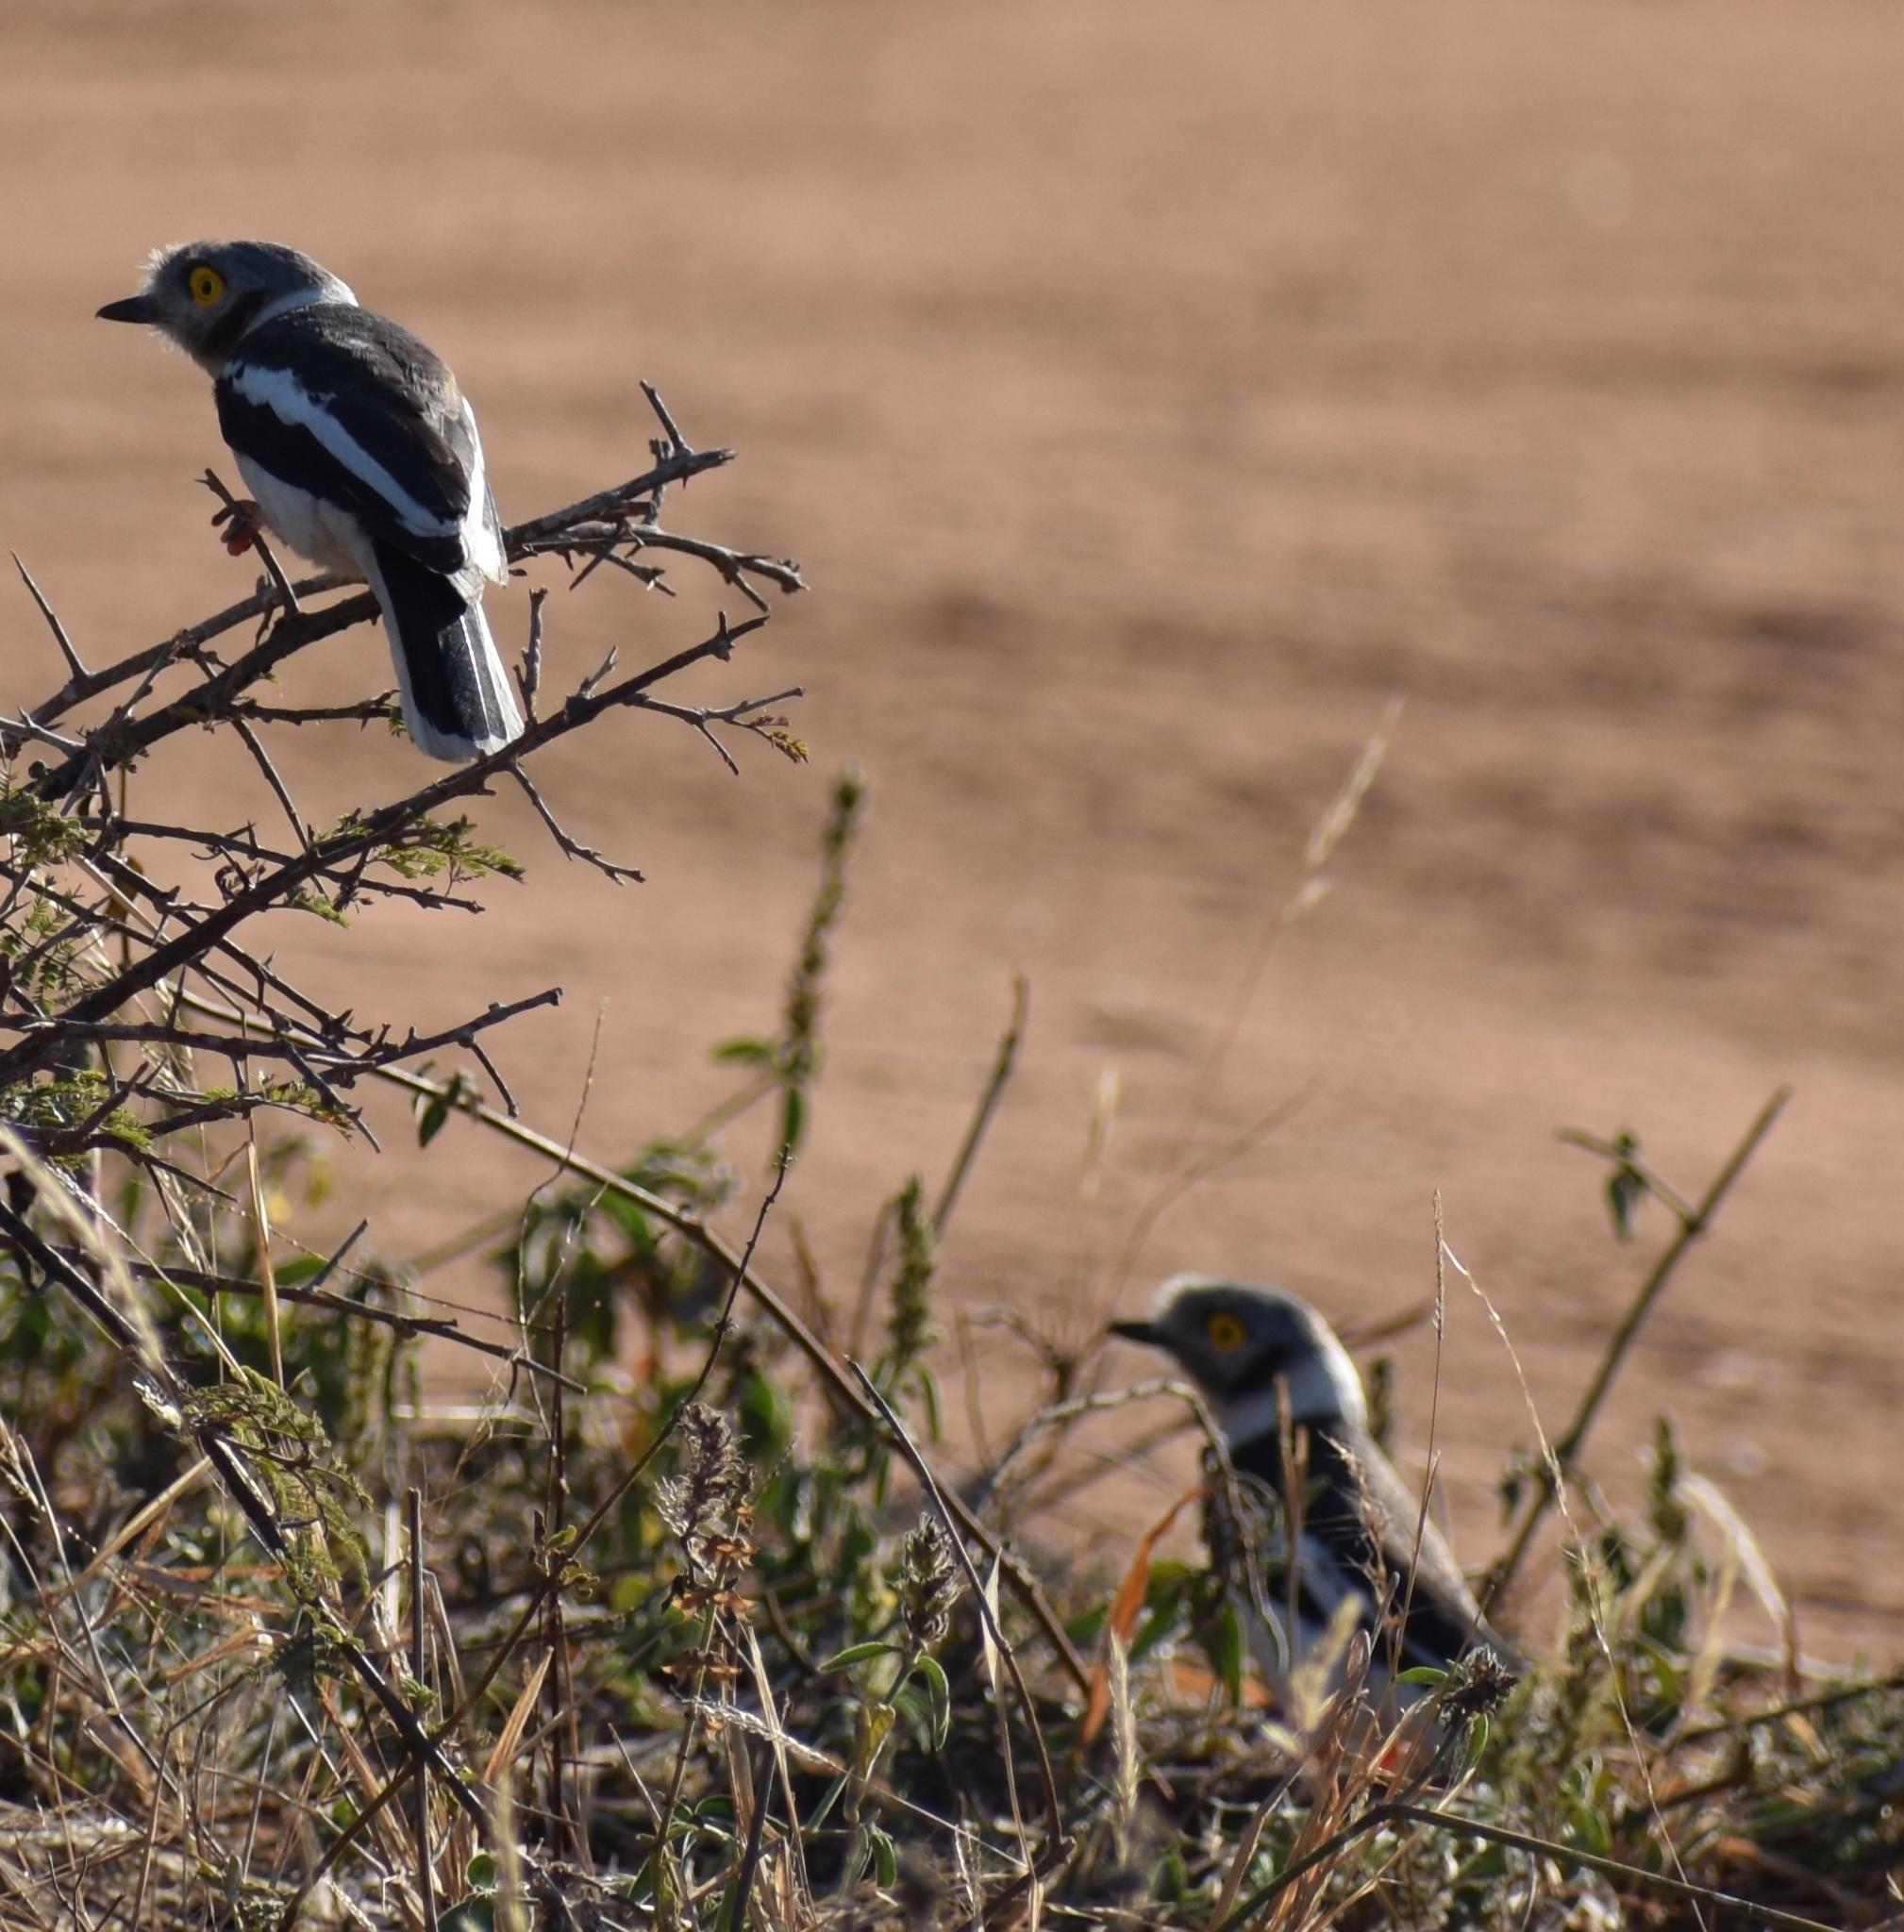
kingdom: Animalia
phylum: Chordata
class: Aves
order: Passeriformes
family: Prionopidae
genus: Prionops
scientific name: Prionops plumatus
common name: White-crested helmetshrike
